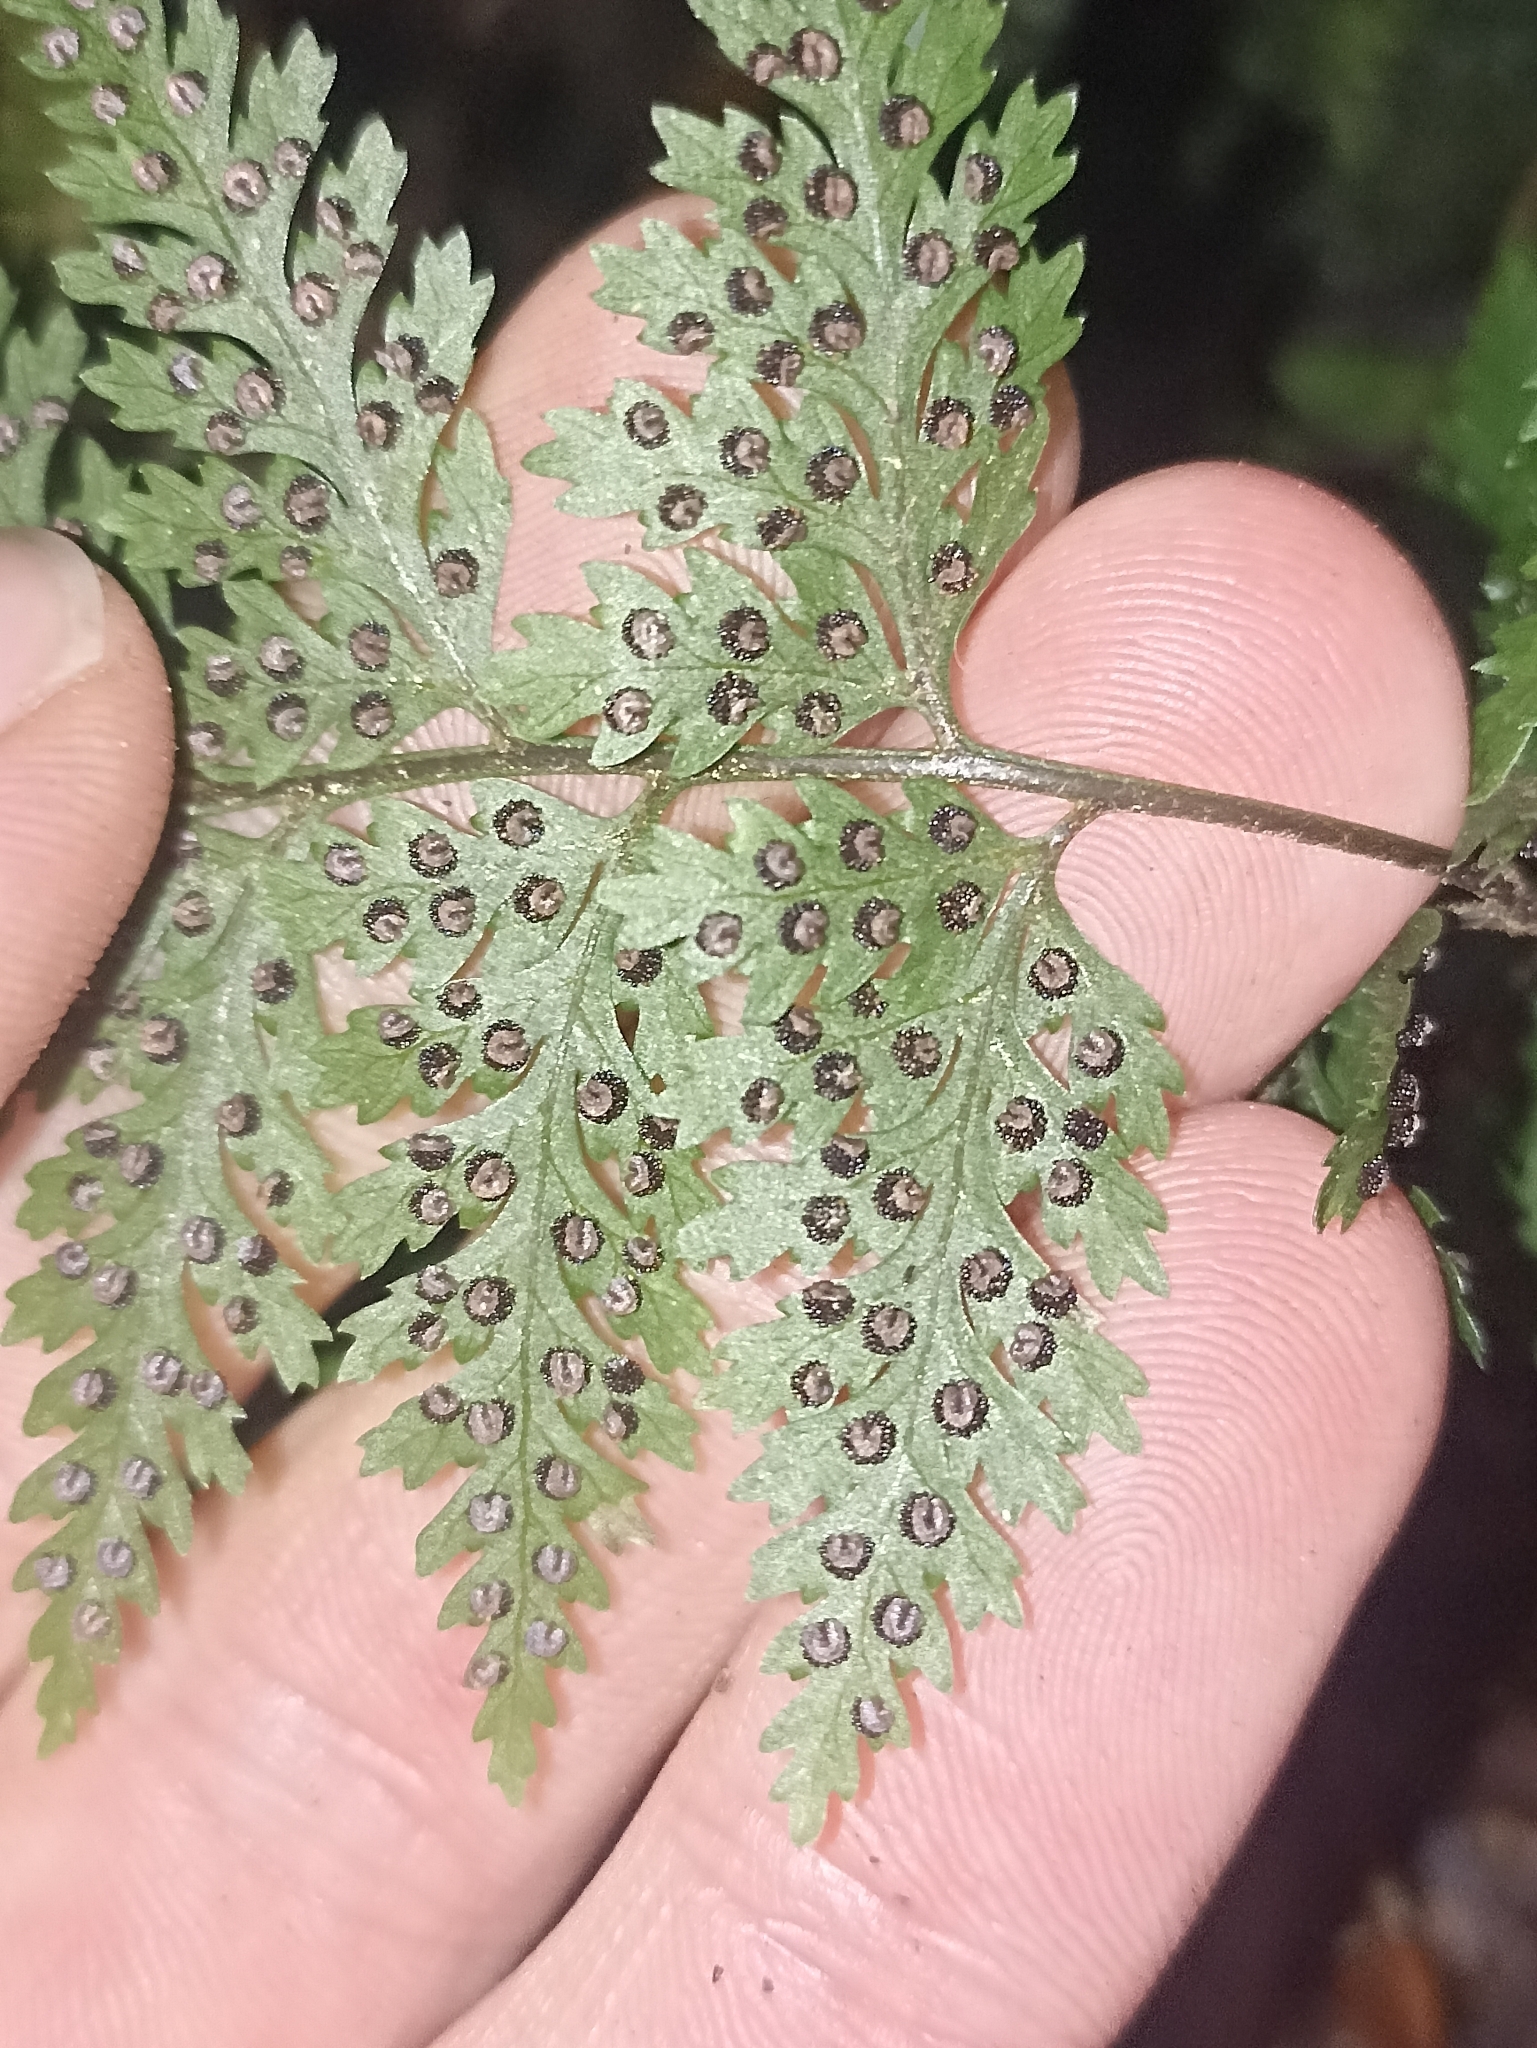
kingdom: Plantae
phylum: Tracheophyta
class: Polypodiopsida
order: Polypodiales
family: Dryopteridaceae
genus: Parapolystichum
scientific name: Parapolystichum glabellum
